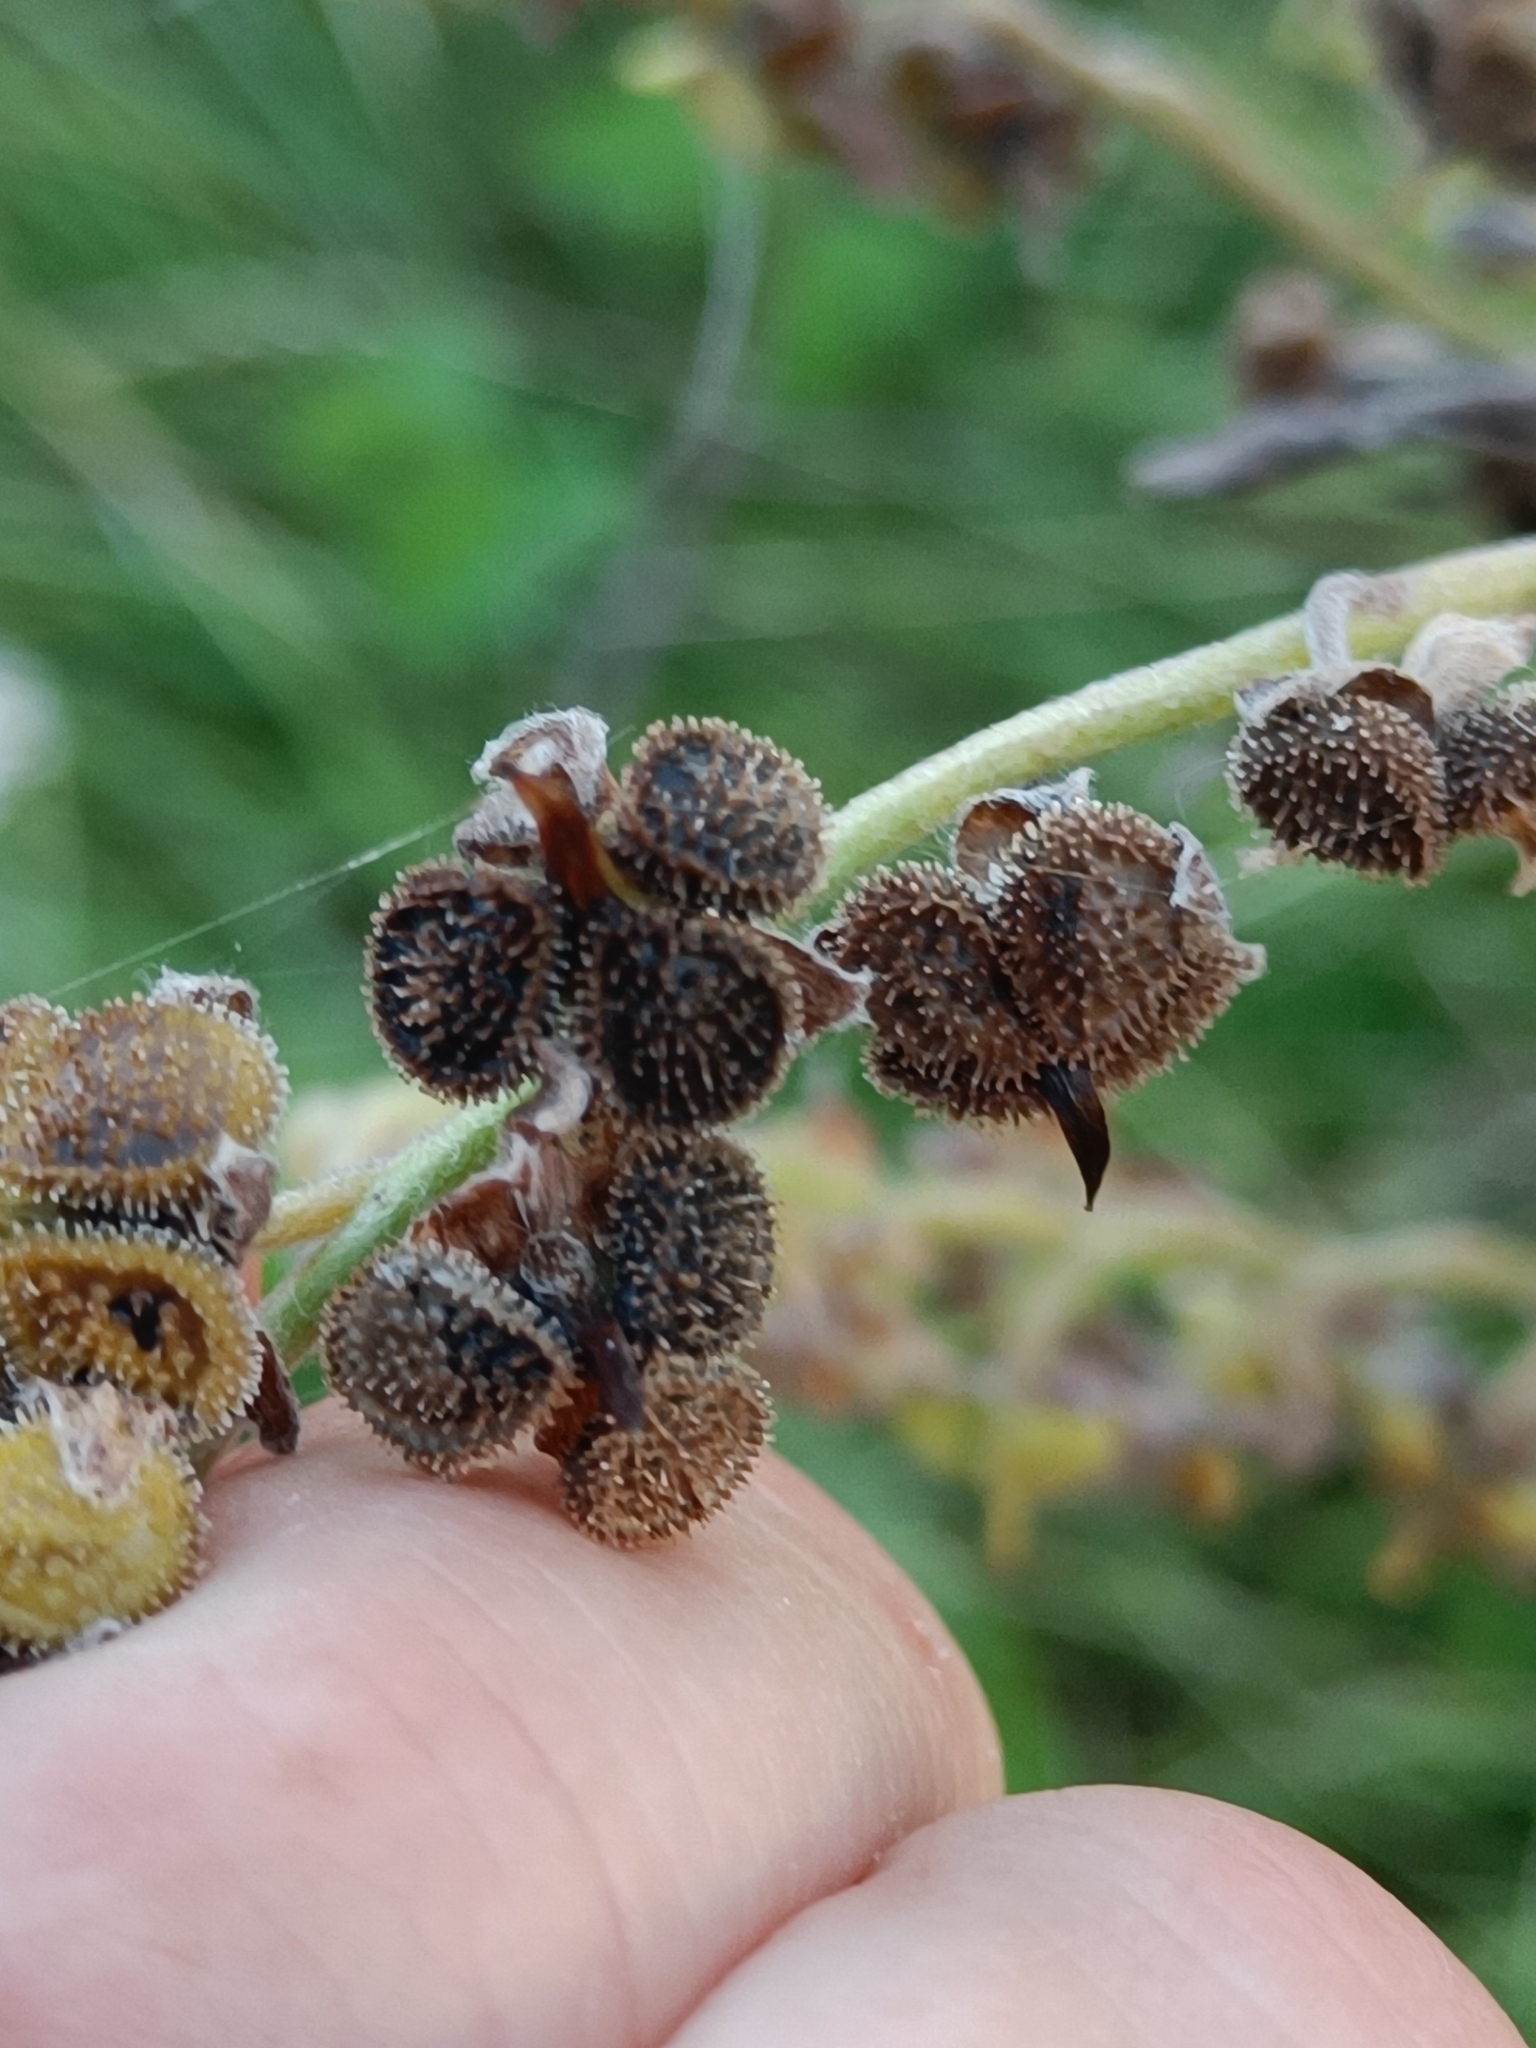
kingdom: Plantae
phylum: Tracheophyta
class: Magnoliopsida
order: Boraginales
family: Boraginaceae
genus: Cynoglossum
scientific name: Cynoglossum officinale
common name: Hound's-tongue
